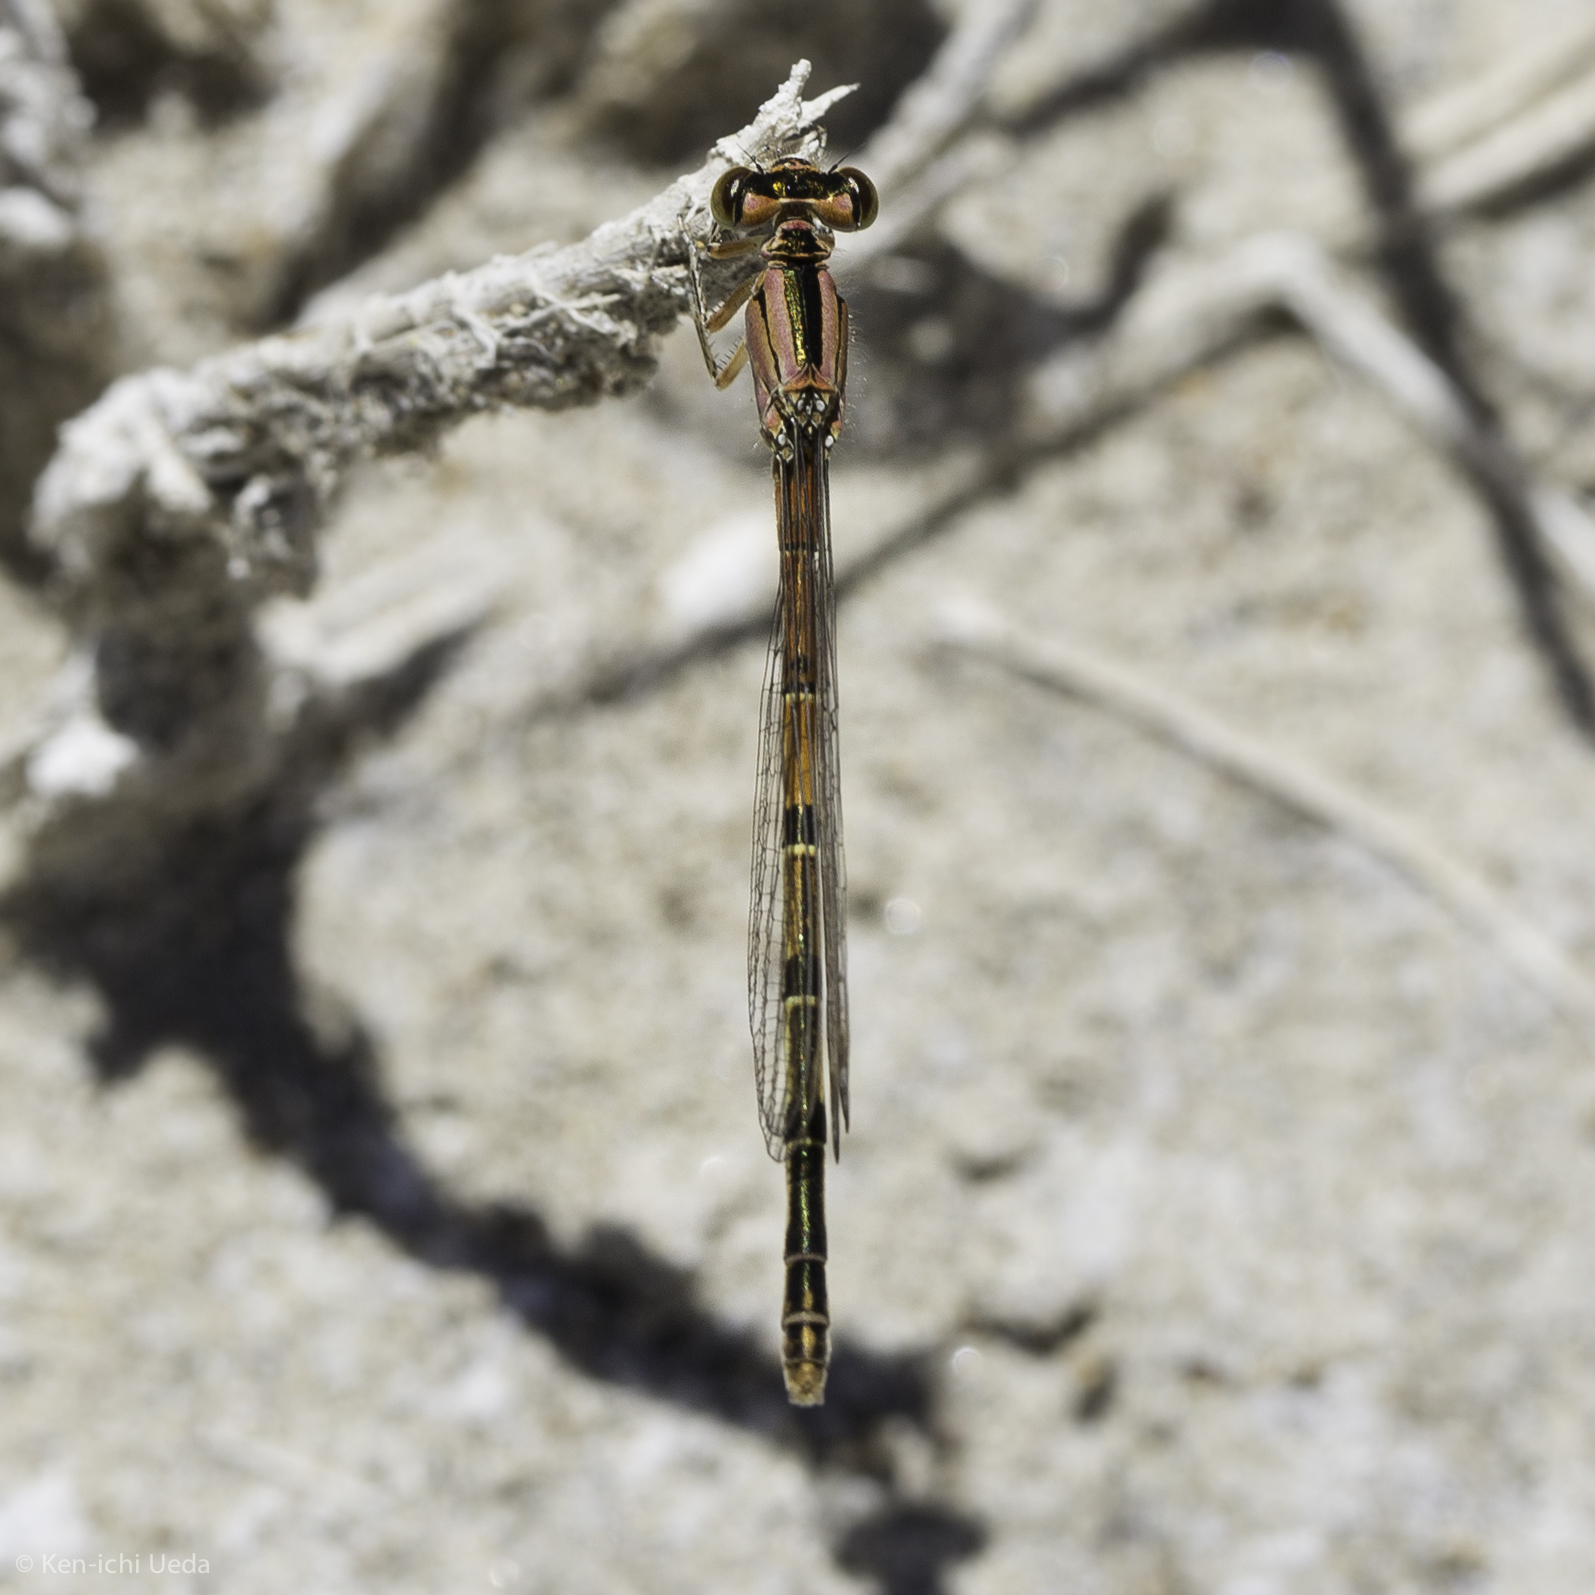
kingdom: Animalia
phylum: Arthropoda
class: Insecta
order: Odonata
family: Coenagrionidae
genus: Ischnura
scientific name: Ischnura perparva
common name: Western forktail
